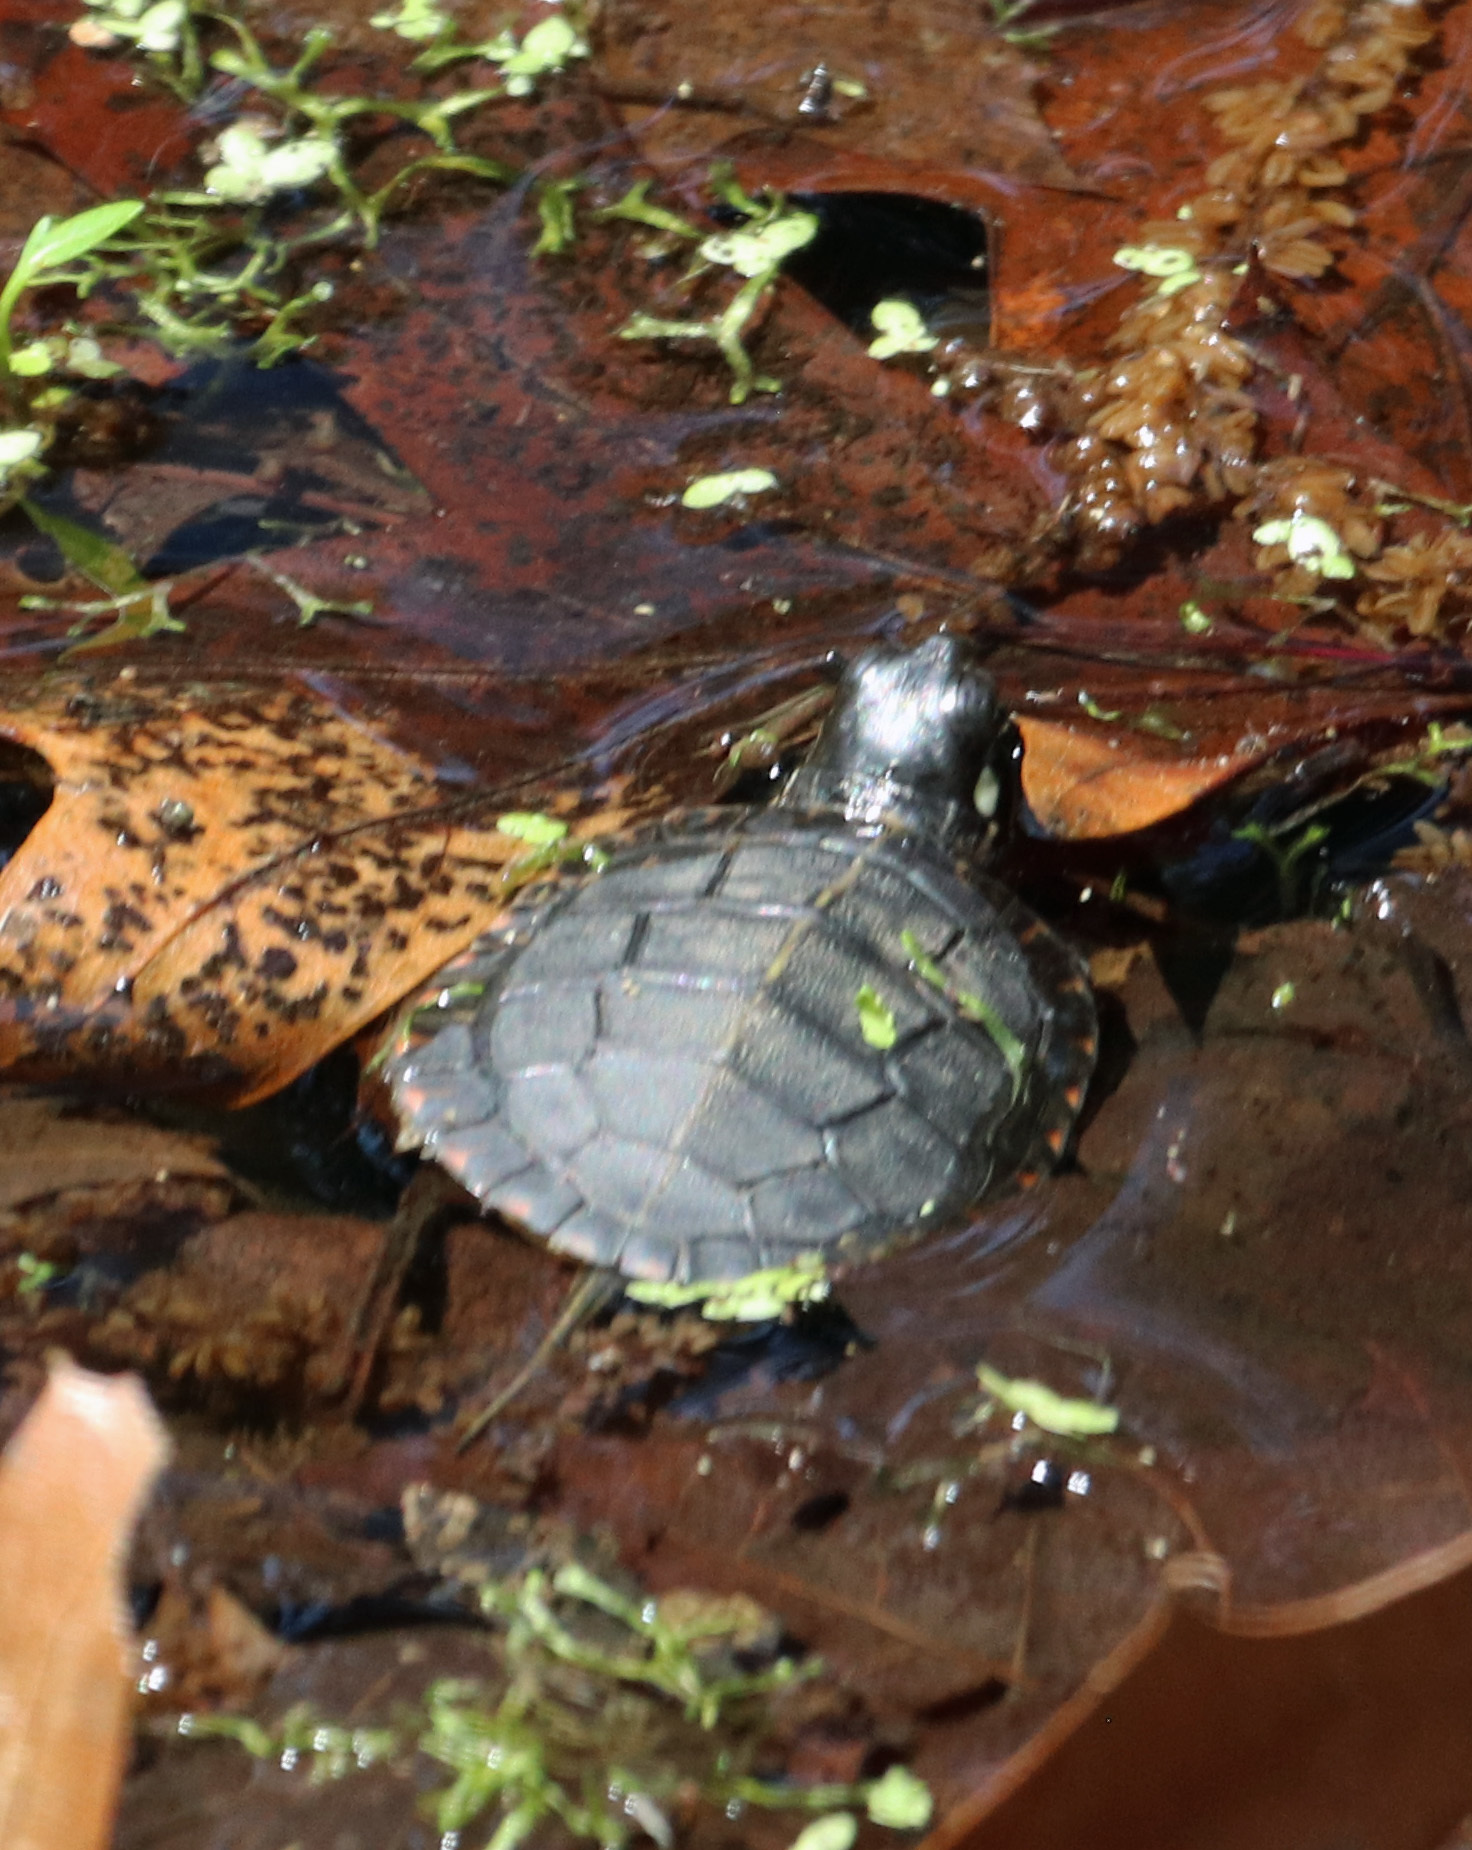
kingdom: Animalia
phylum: Chordata
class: Testudines
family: Emydidae
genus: Chrysemys
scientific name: Chrysemys picta
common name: Painted turtle
